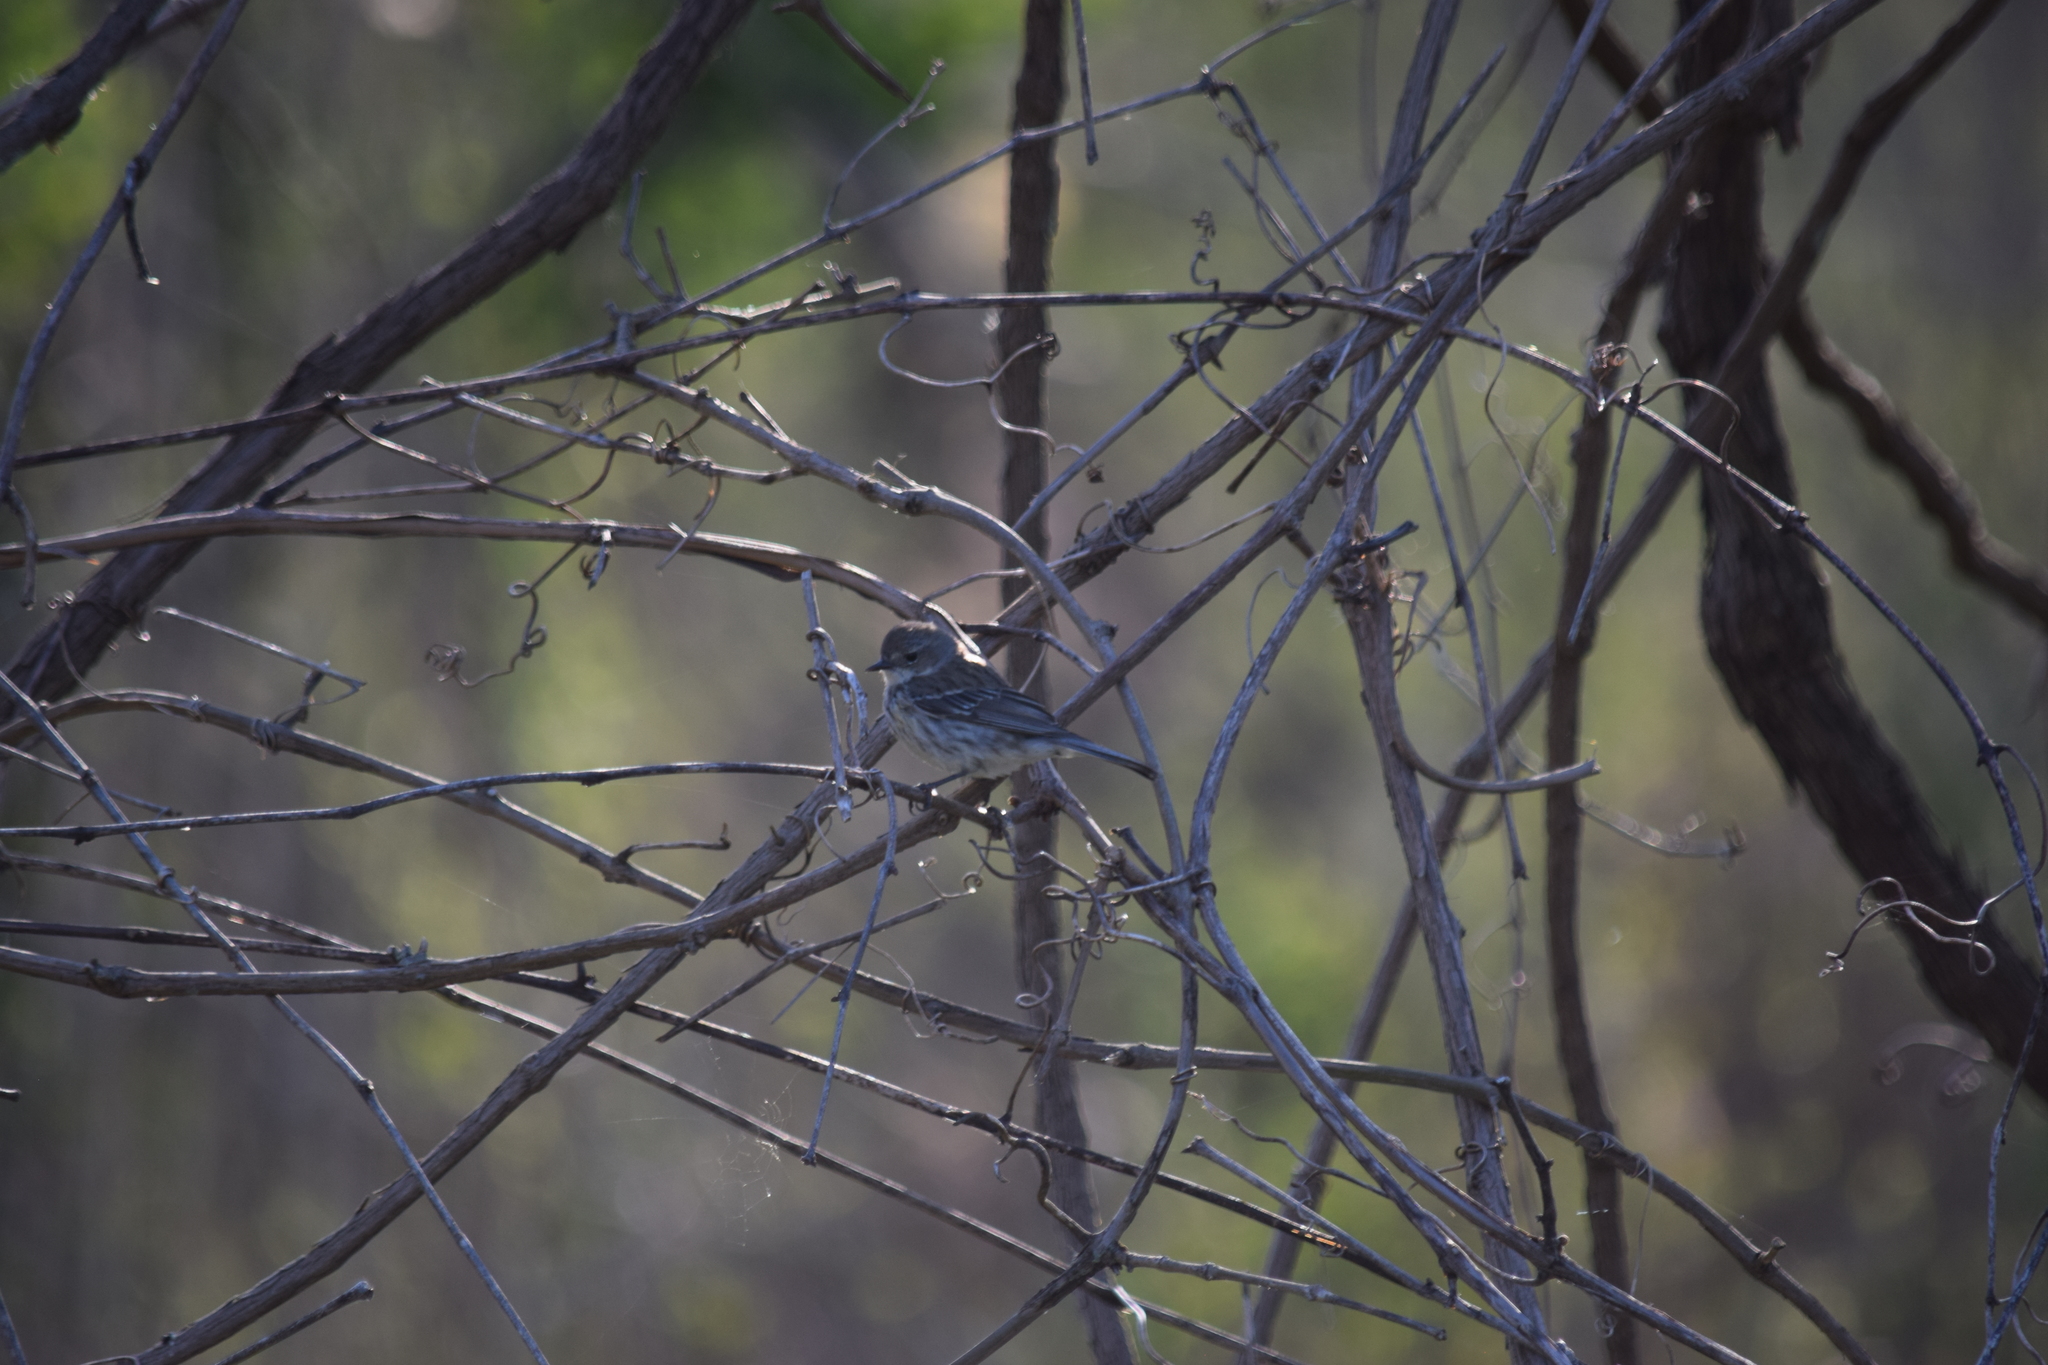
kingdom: Animalia
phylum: Chordata
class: Aves
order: Passeriformes
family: Parulidae
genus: Setophaga
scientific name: Setophaga coronata
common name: Myrtle warbler
